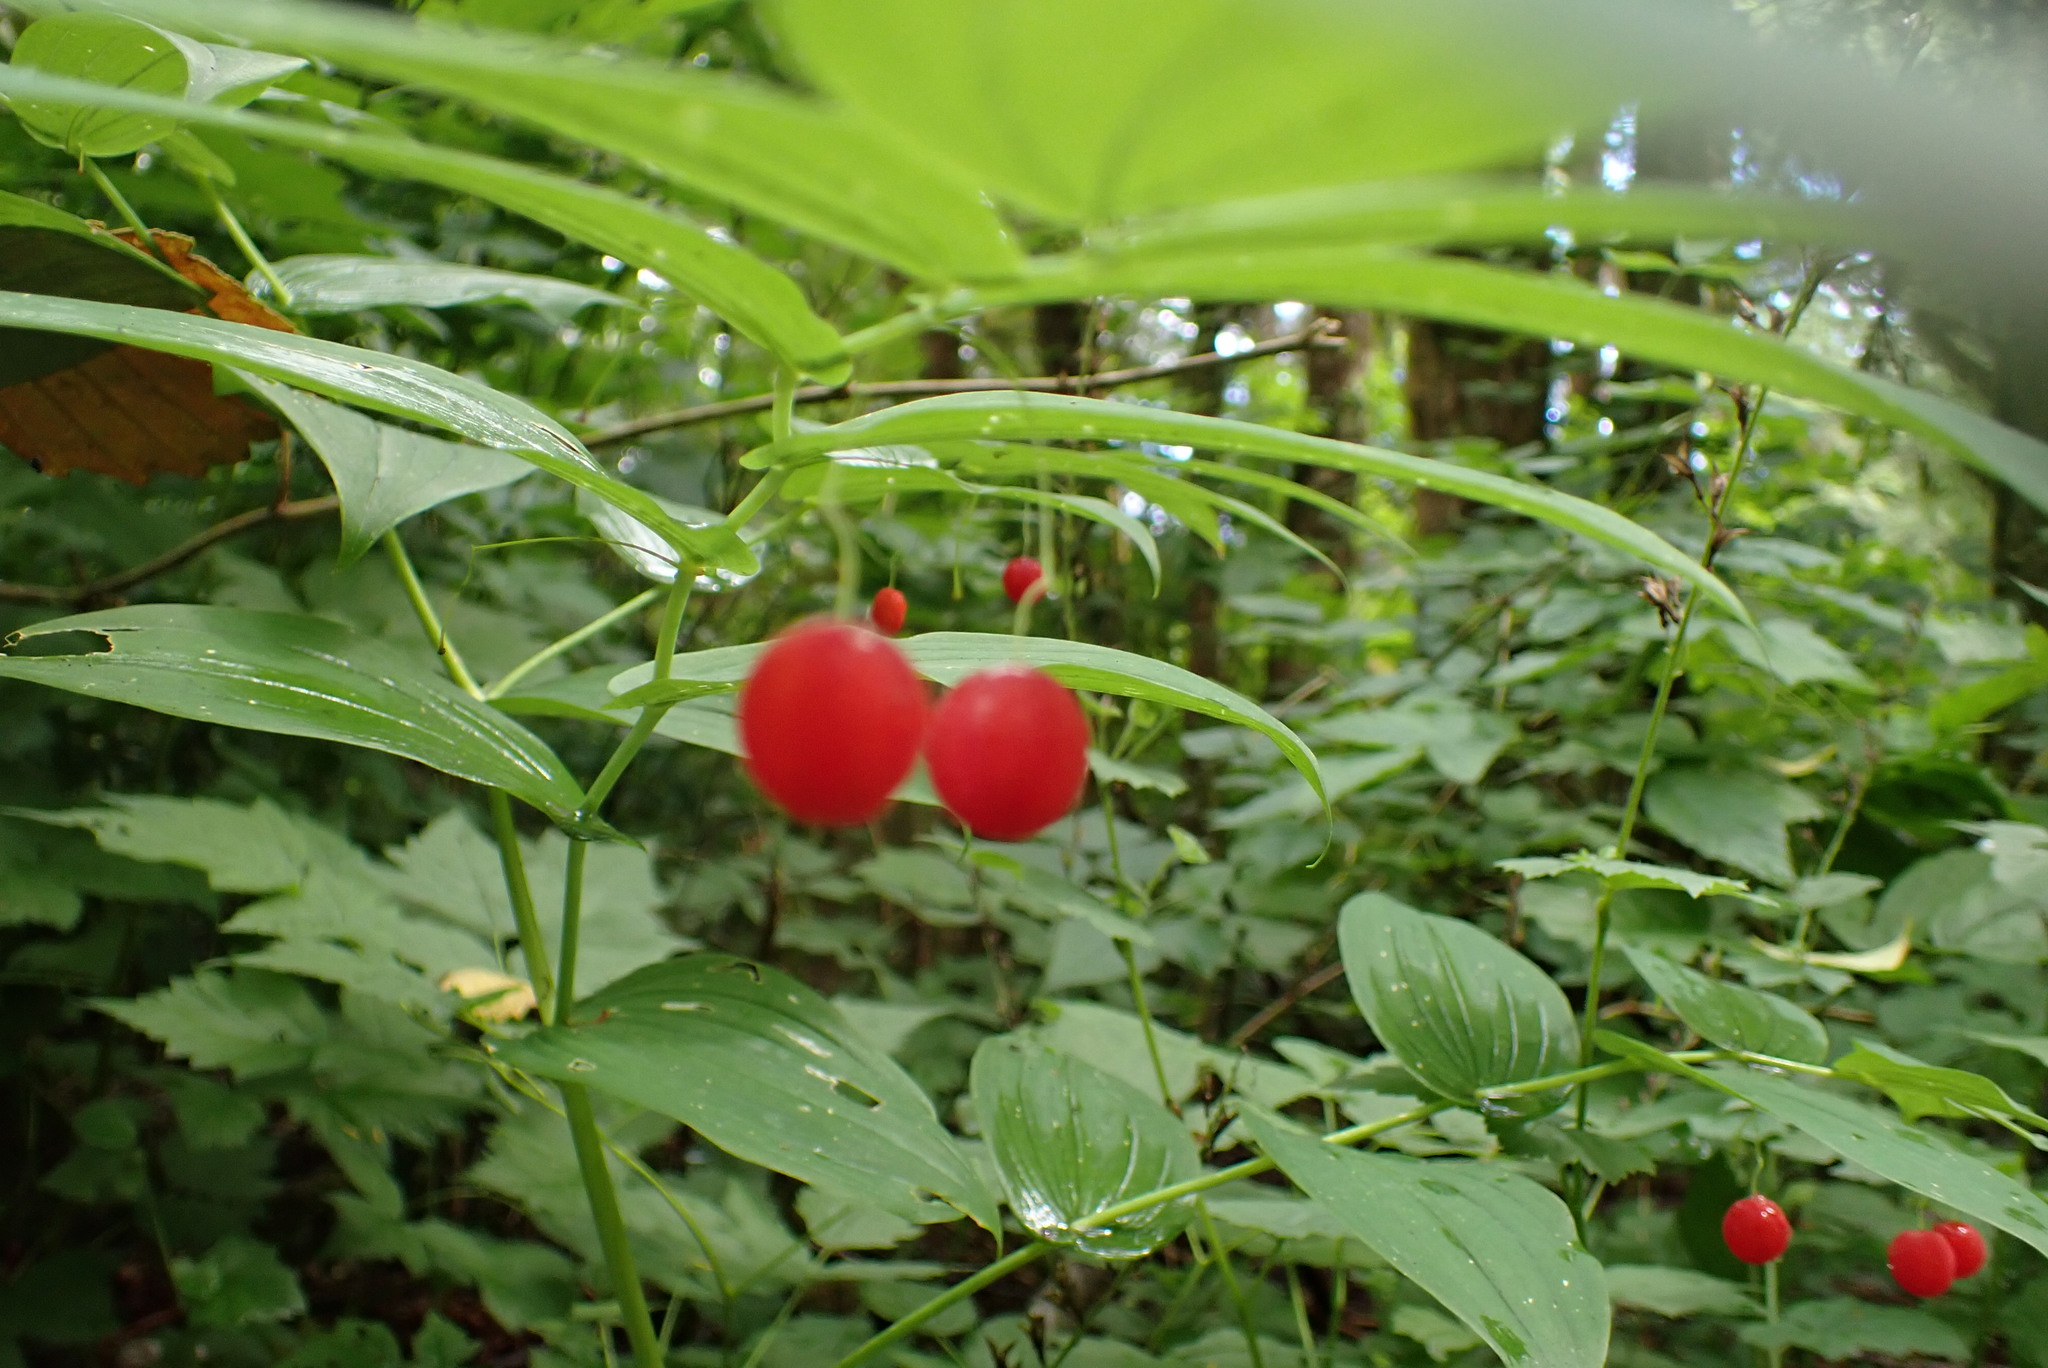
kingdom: Plantae
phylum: Tracheophyta
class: Liliopsida
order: Liliales
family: Liliaceae
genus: Streptopus
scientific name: Streptopus amplexifolius
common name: Clasp twisted stalk
